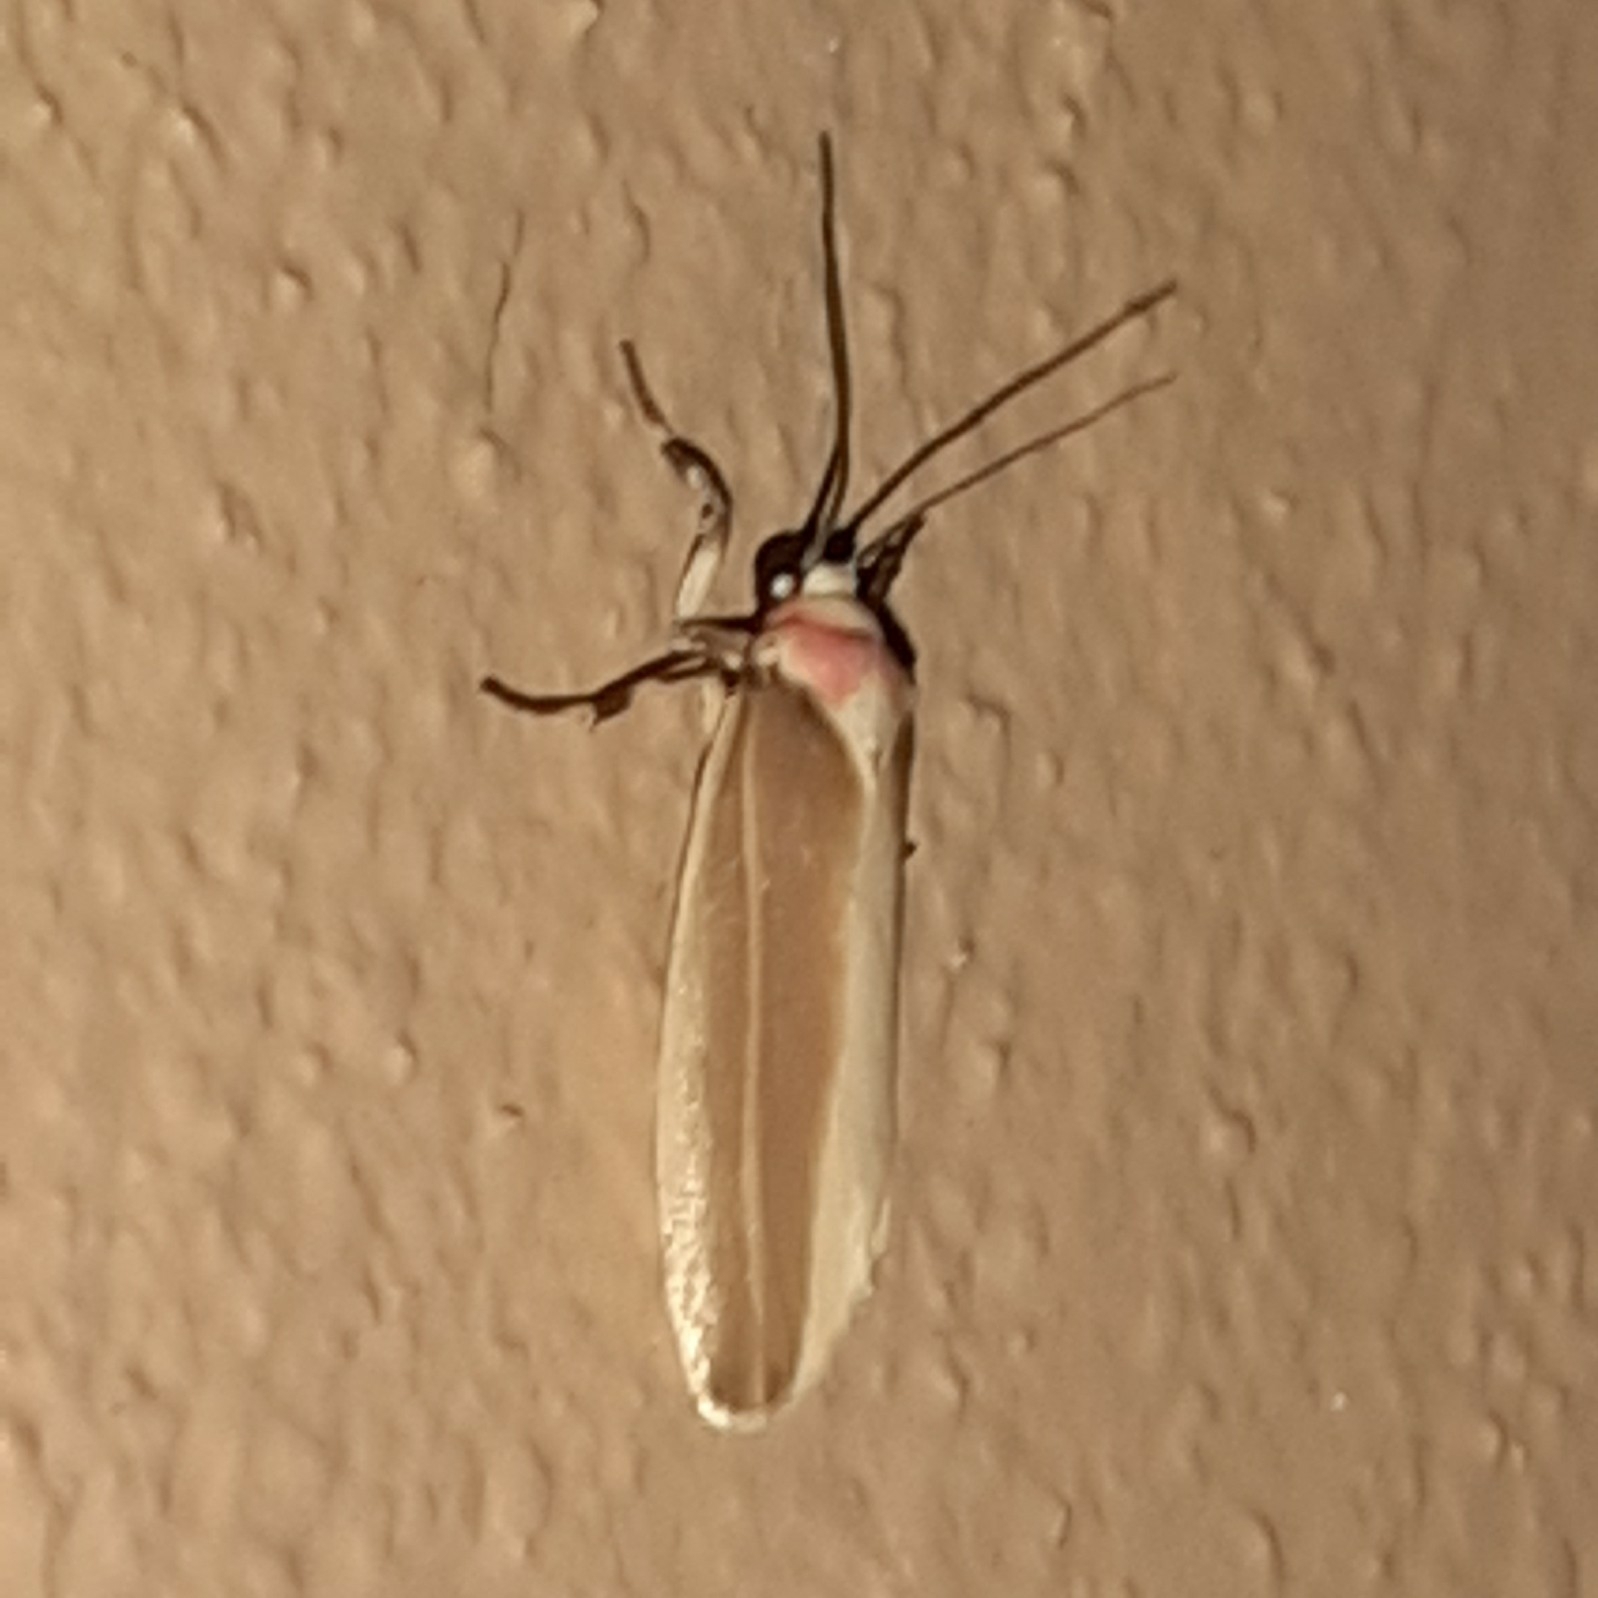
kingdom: Animalia
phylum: Arthropoda
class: Insecta
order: Lepidoptera
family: Erebidae
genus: Rhabdatomis
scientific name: Rhabdatomis laudamia
